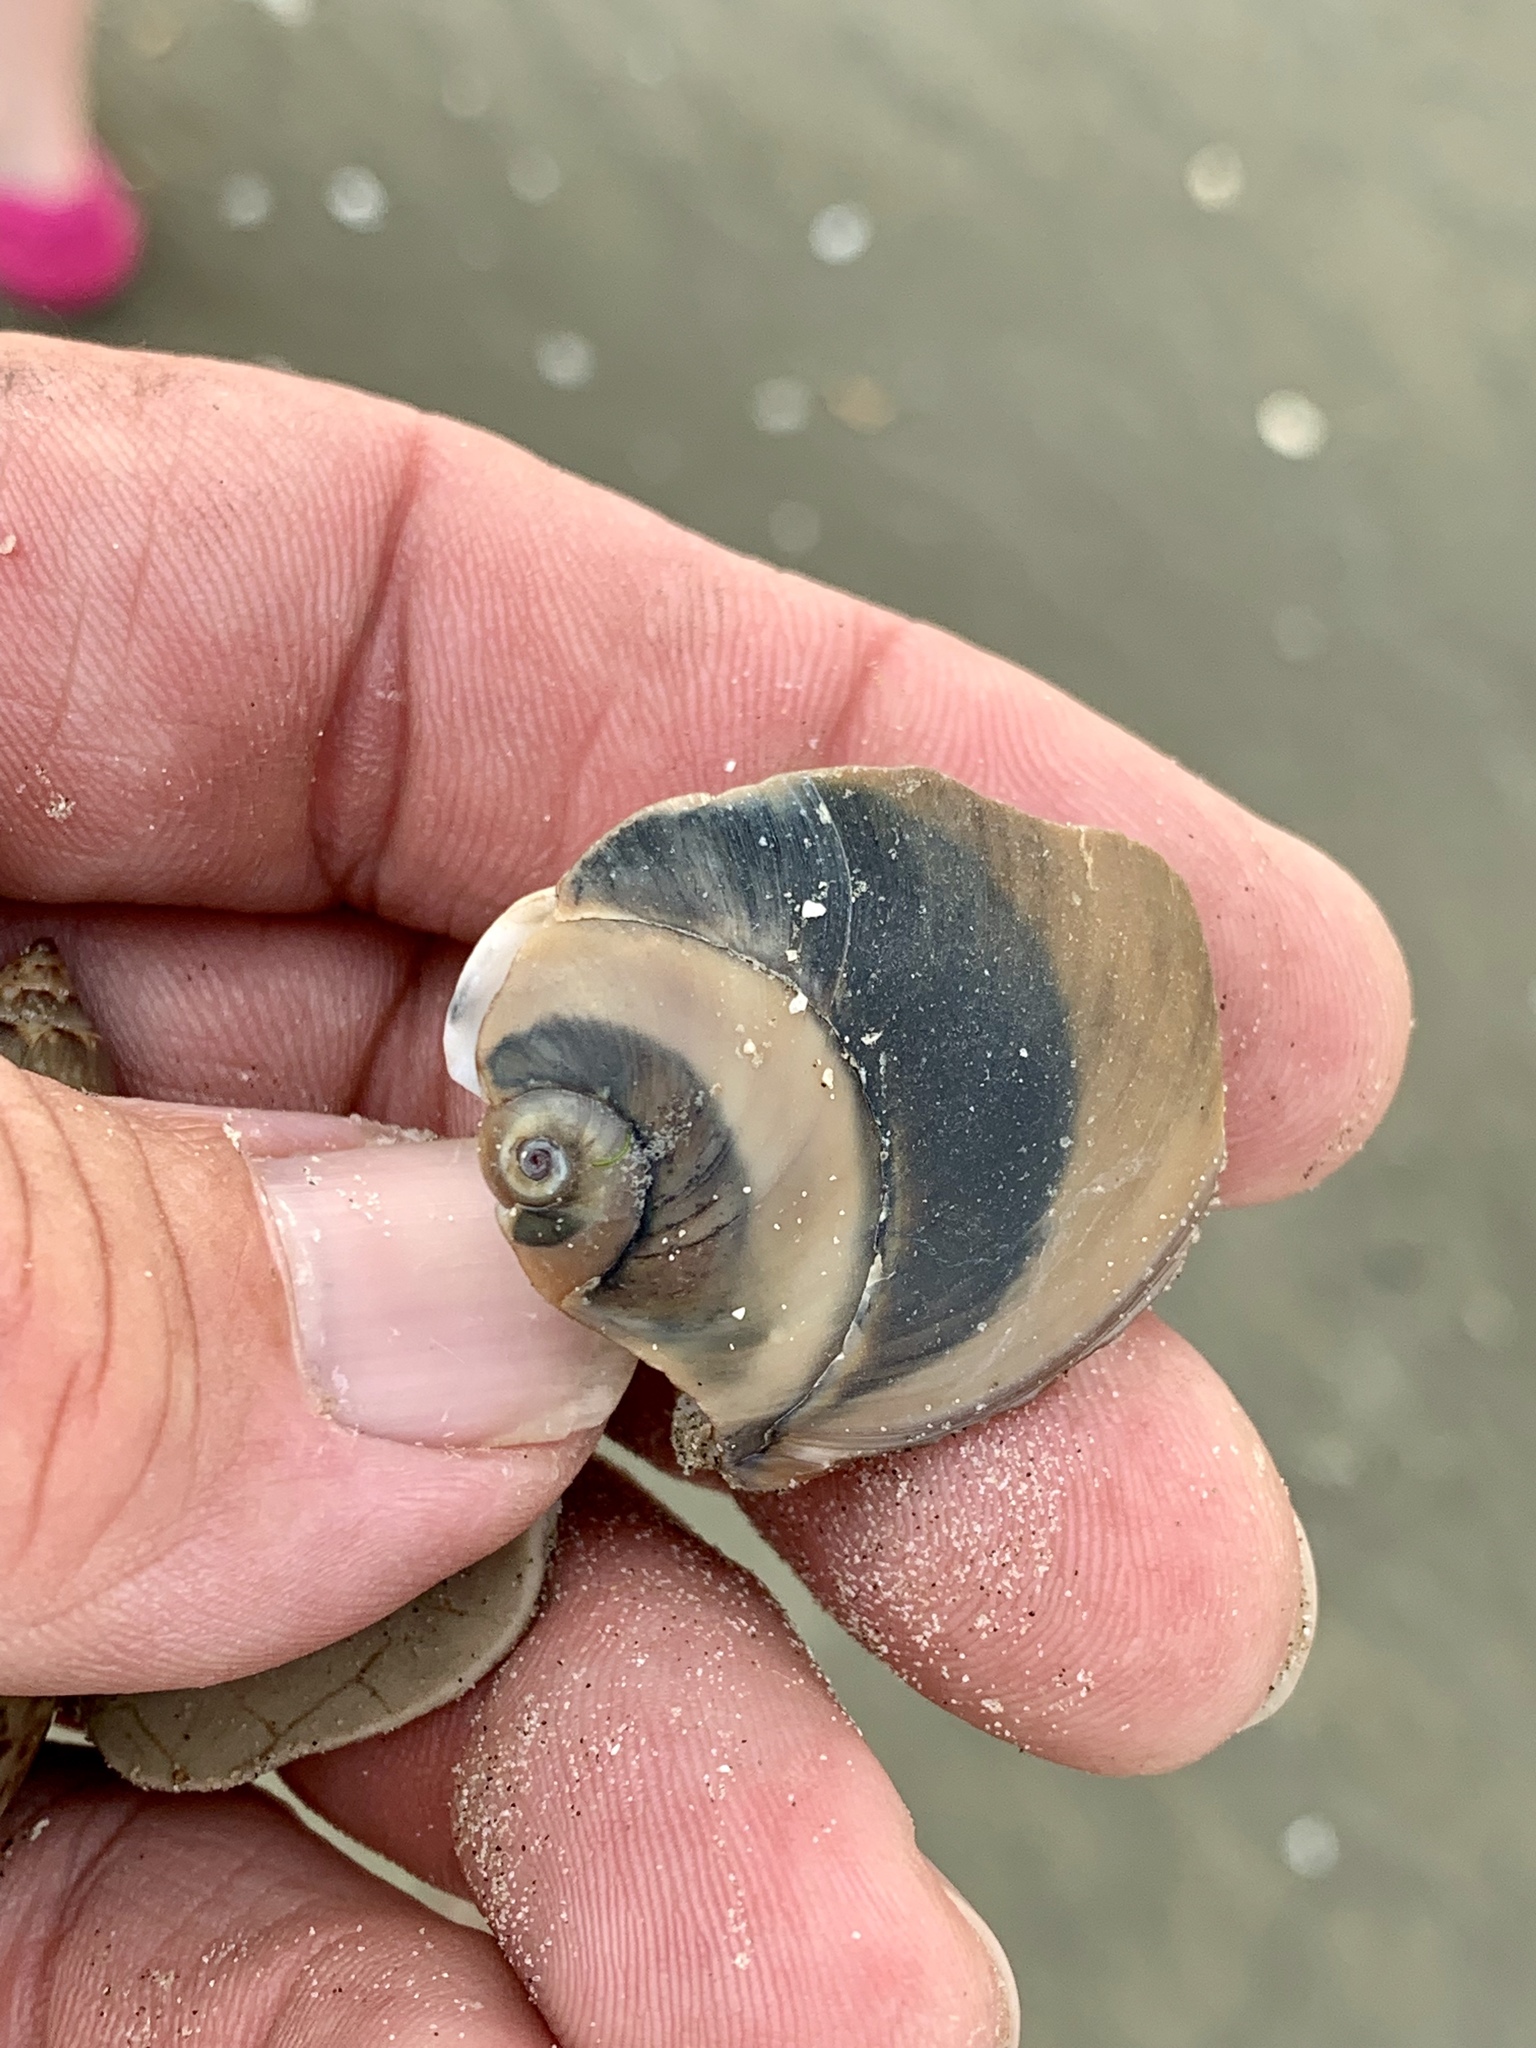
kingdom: Animalia
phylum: Mollusca
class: Gastropoda
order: Littorinimorpha
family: Naticidae
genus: Neverita
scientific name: Neverita duplicata
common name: Lobed moonsnail
